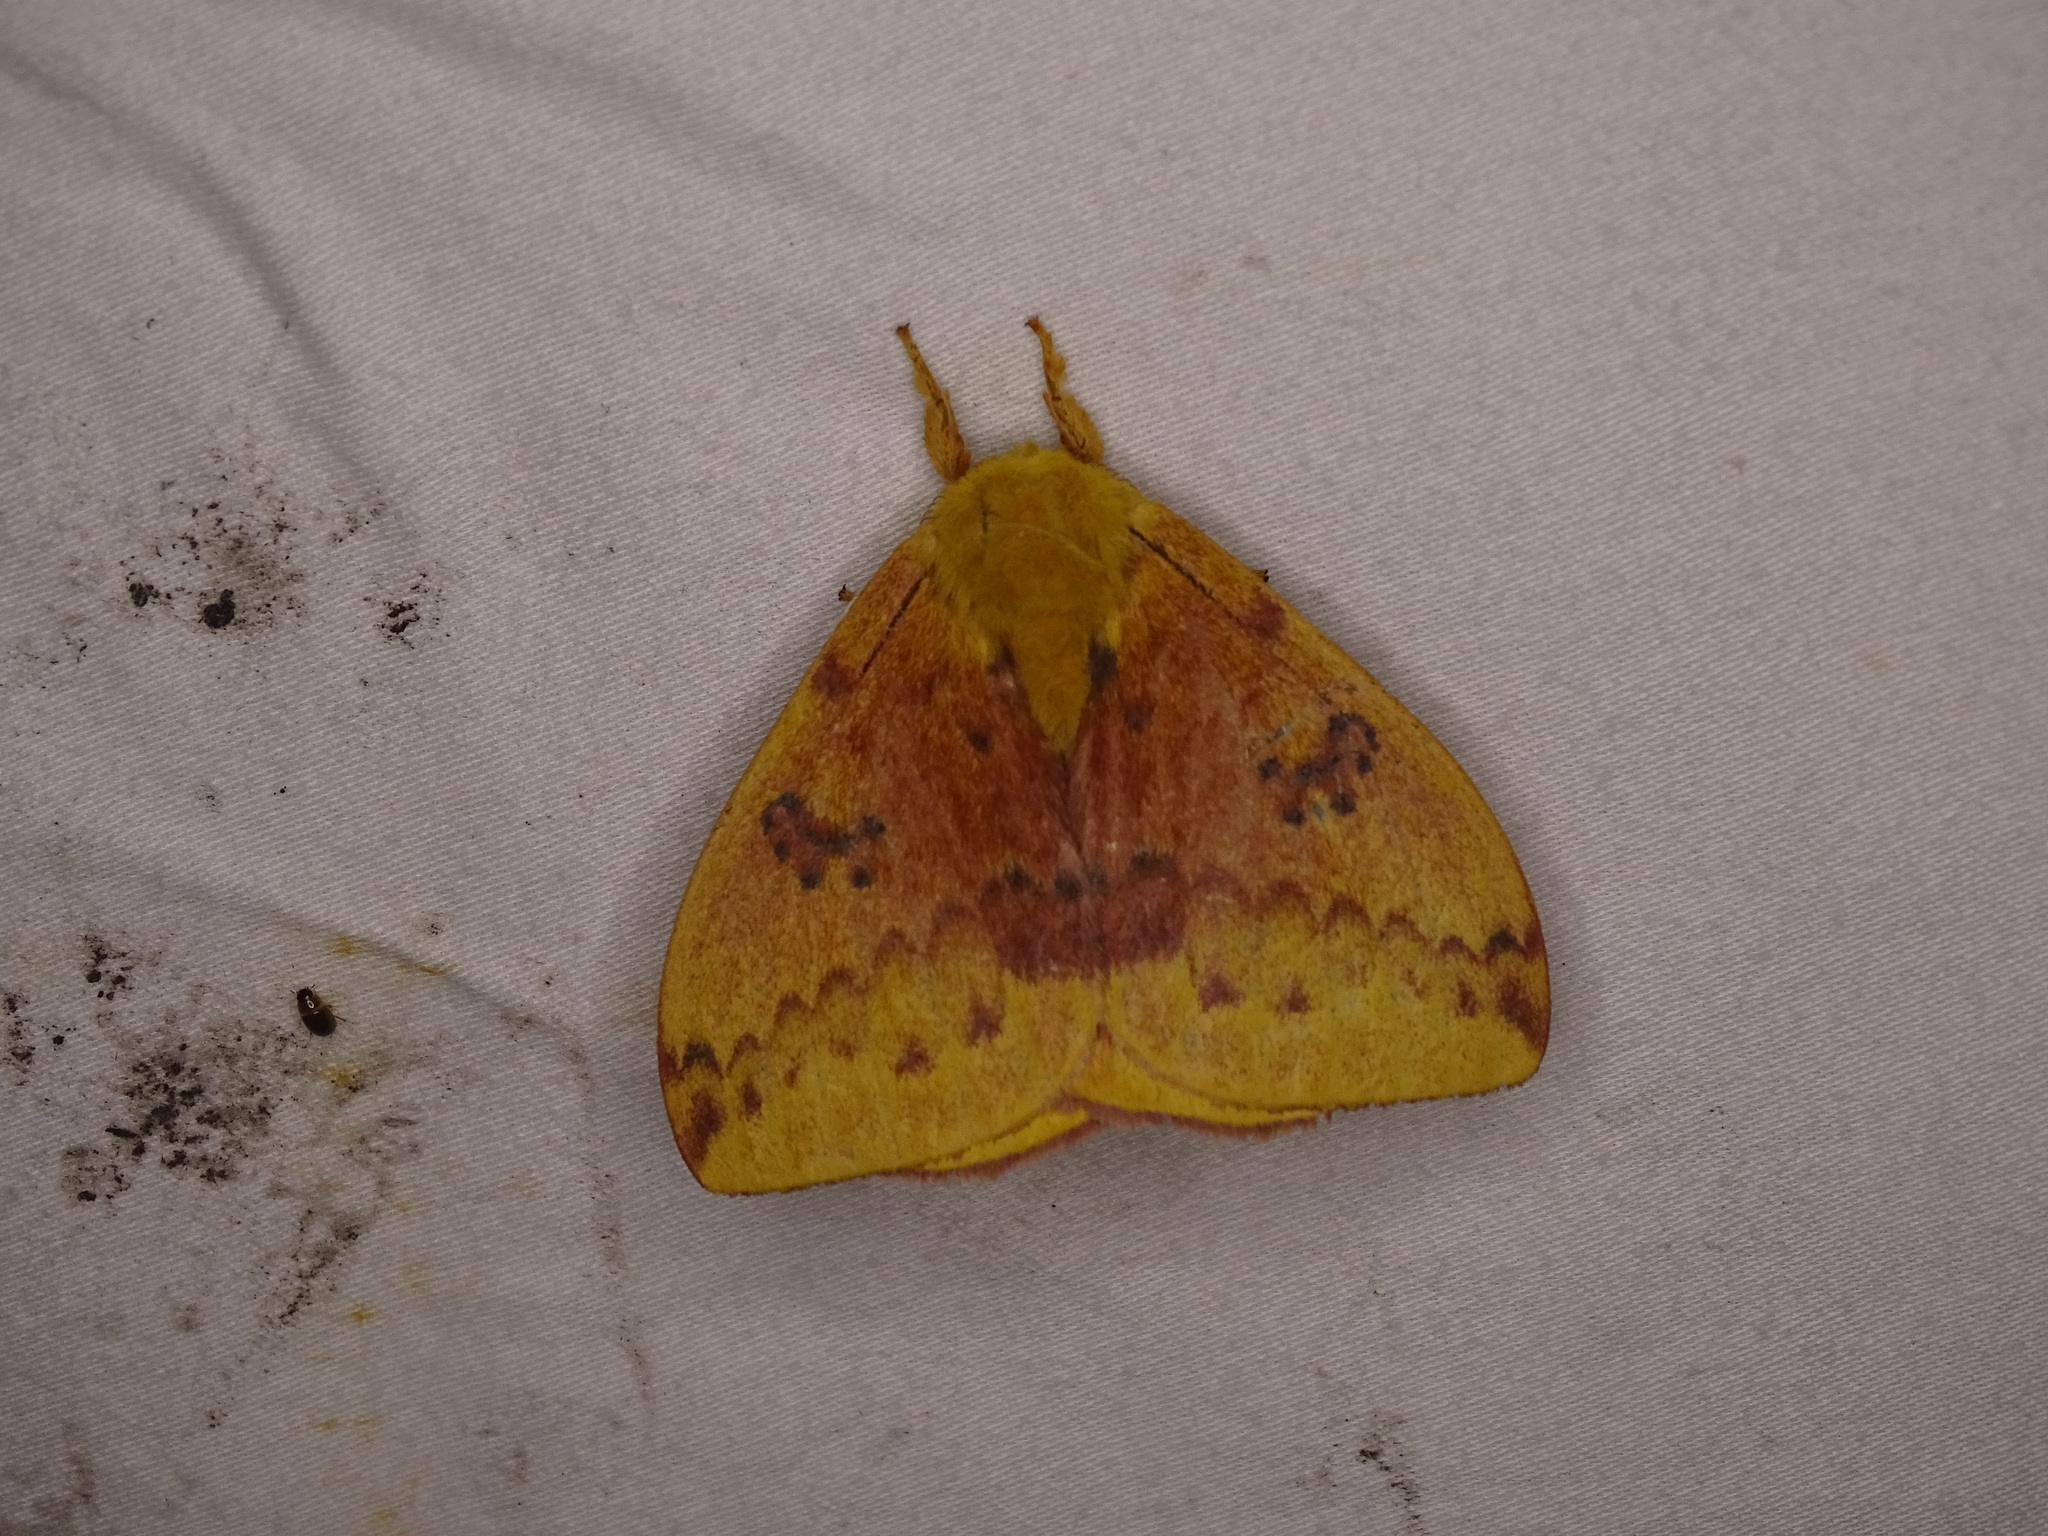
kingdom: Animalia
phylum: Arthropoda
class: Insecta
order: Lepidoptera
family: Saturniidae
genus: Automeris
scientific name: Automeris io
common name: Io moth
